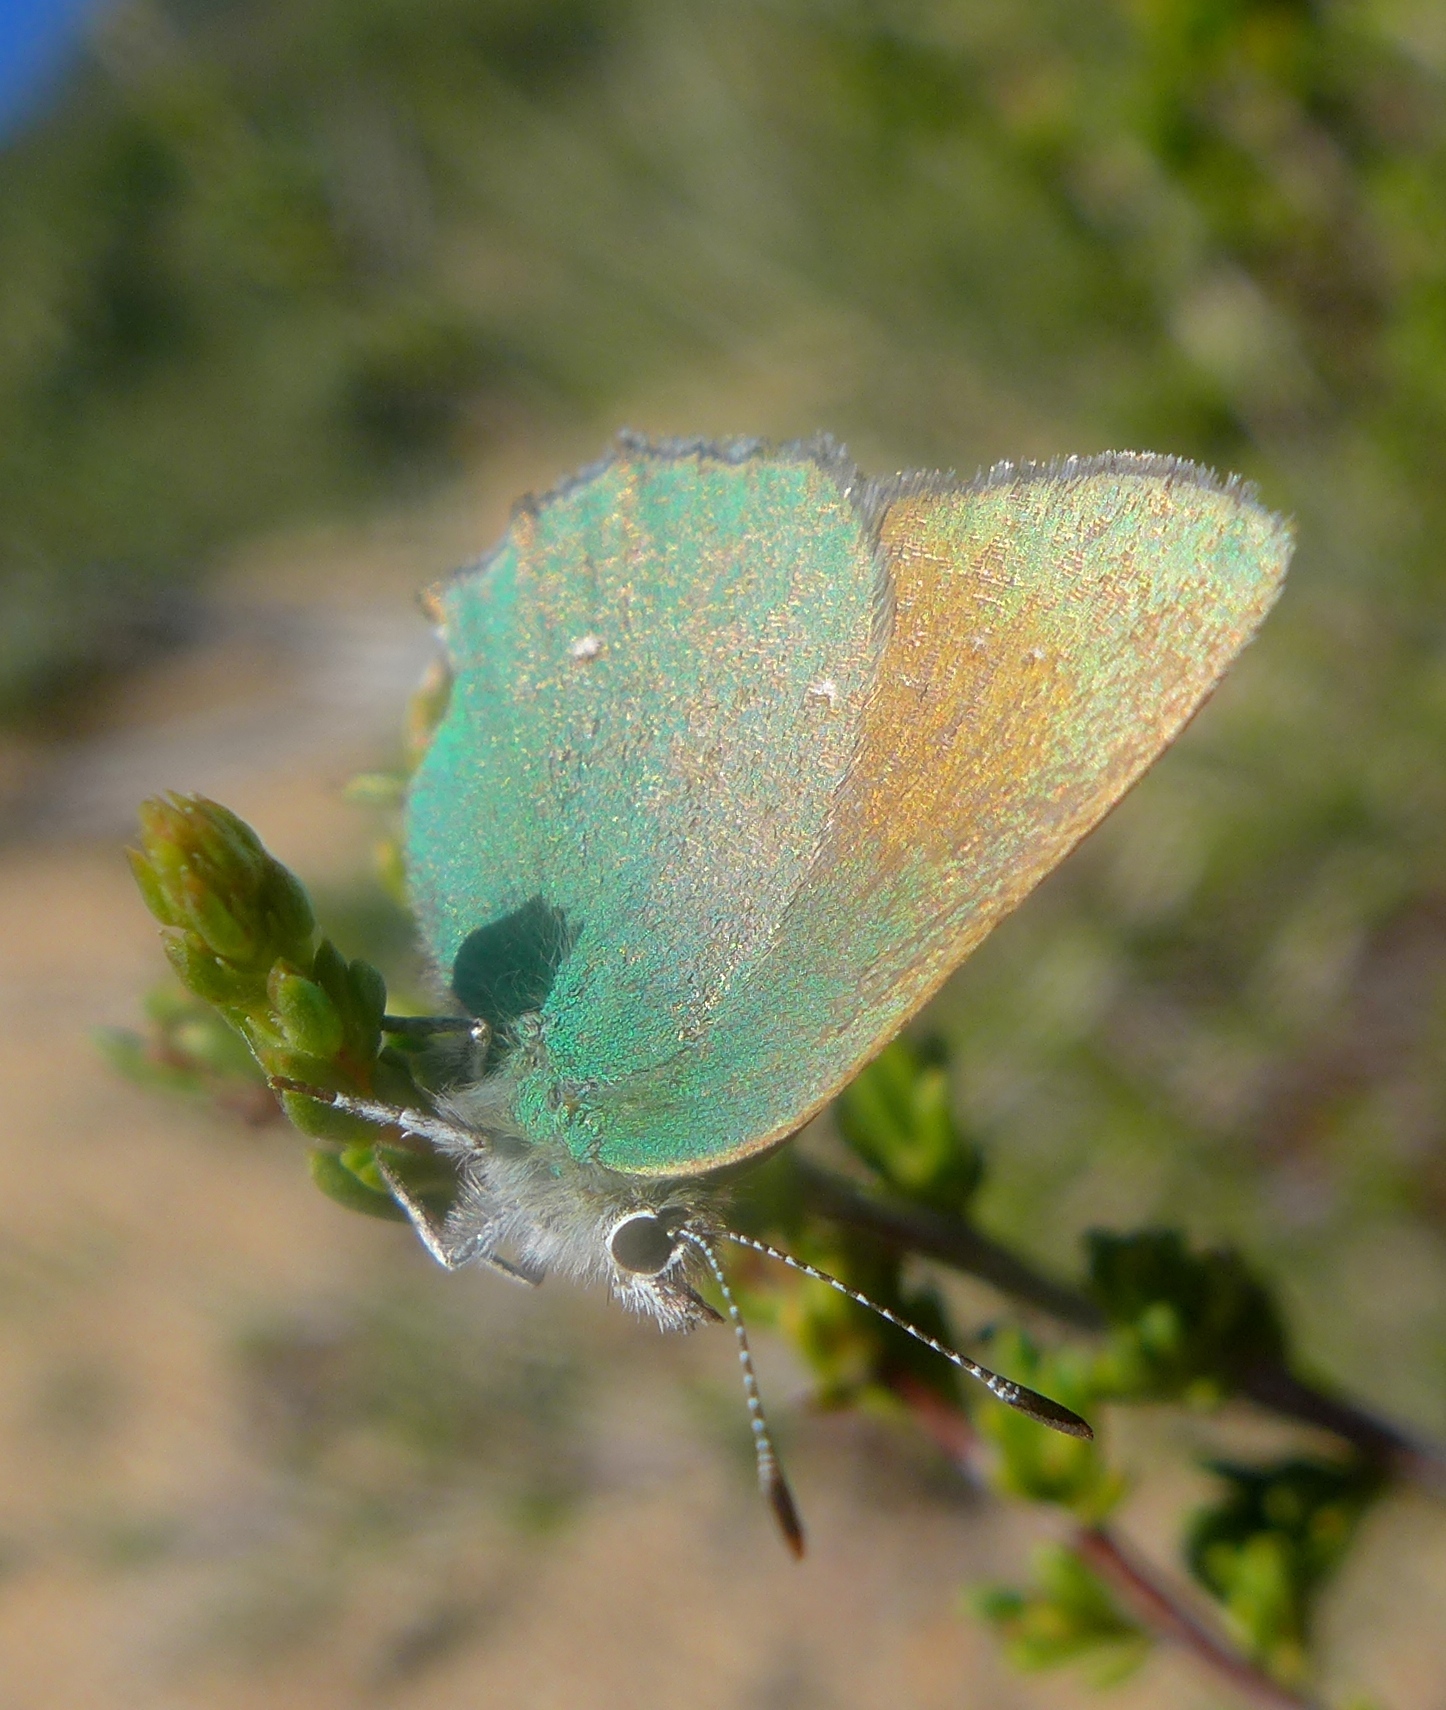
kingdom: Animalia
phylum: Arthropoda
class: Insecta
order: Lepidoptera
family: Lycaenidae
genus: Callophrys
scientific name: Callophrys dumetorum
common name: Bramble hairstreak
